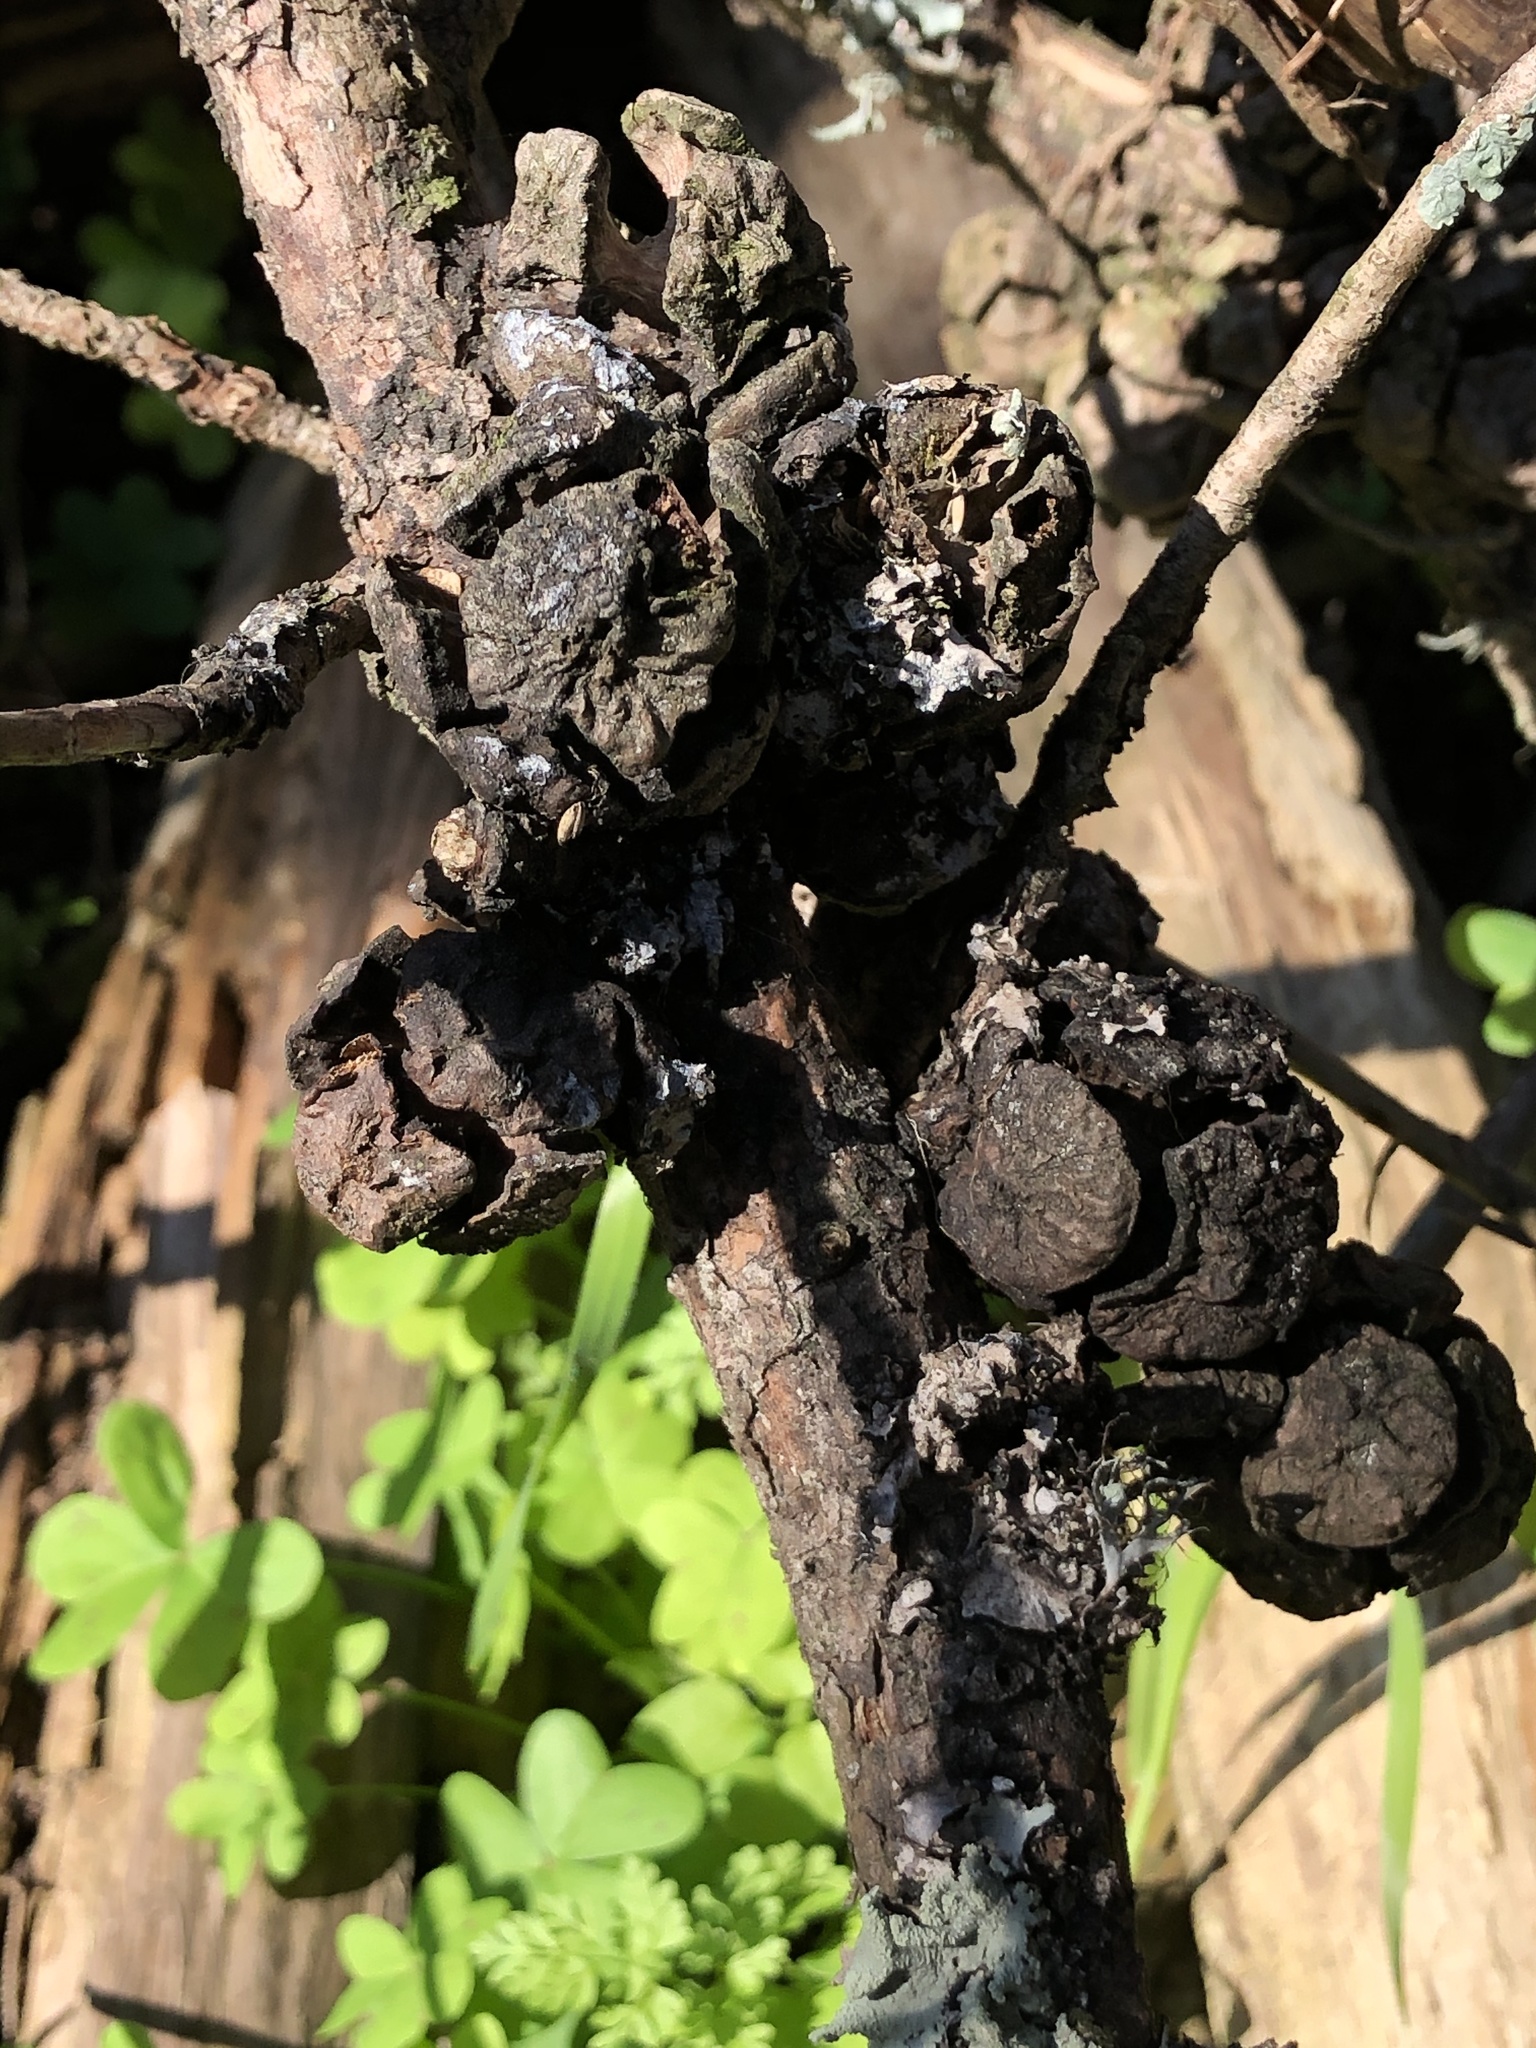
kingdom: Plantae
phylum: Tracheophyta
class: Pinopsida
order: Pinales
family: Cupressaceae
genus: Cupressus
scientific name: Cupressus macrocarpa
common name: Monterey cypress
